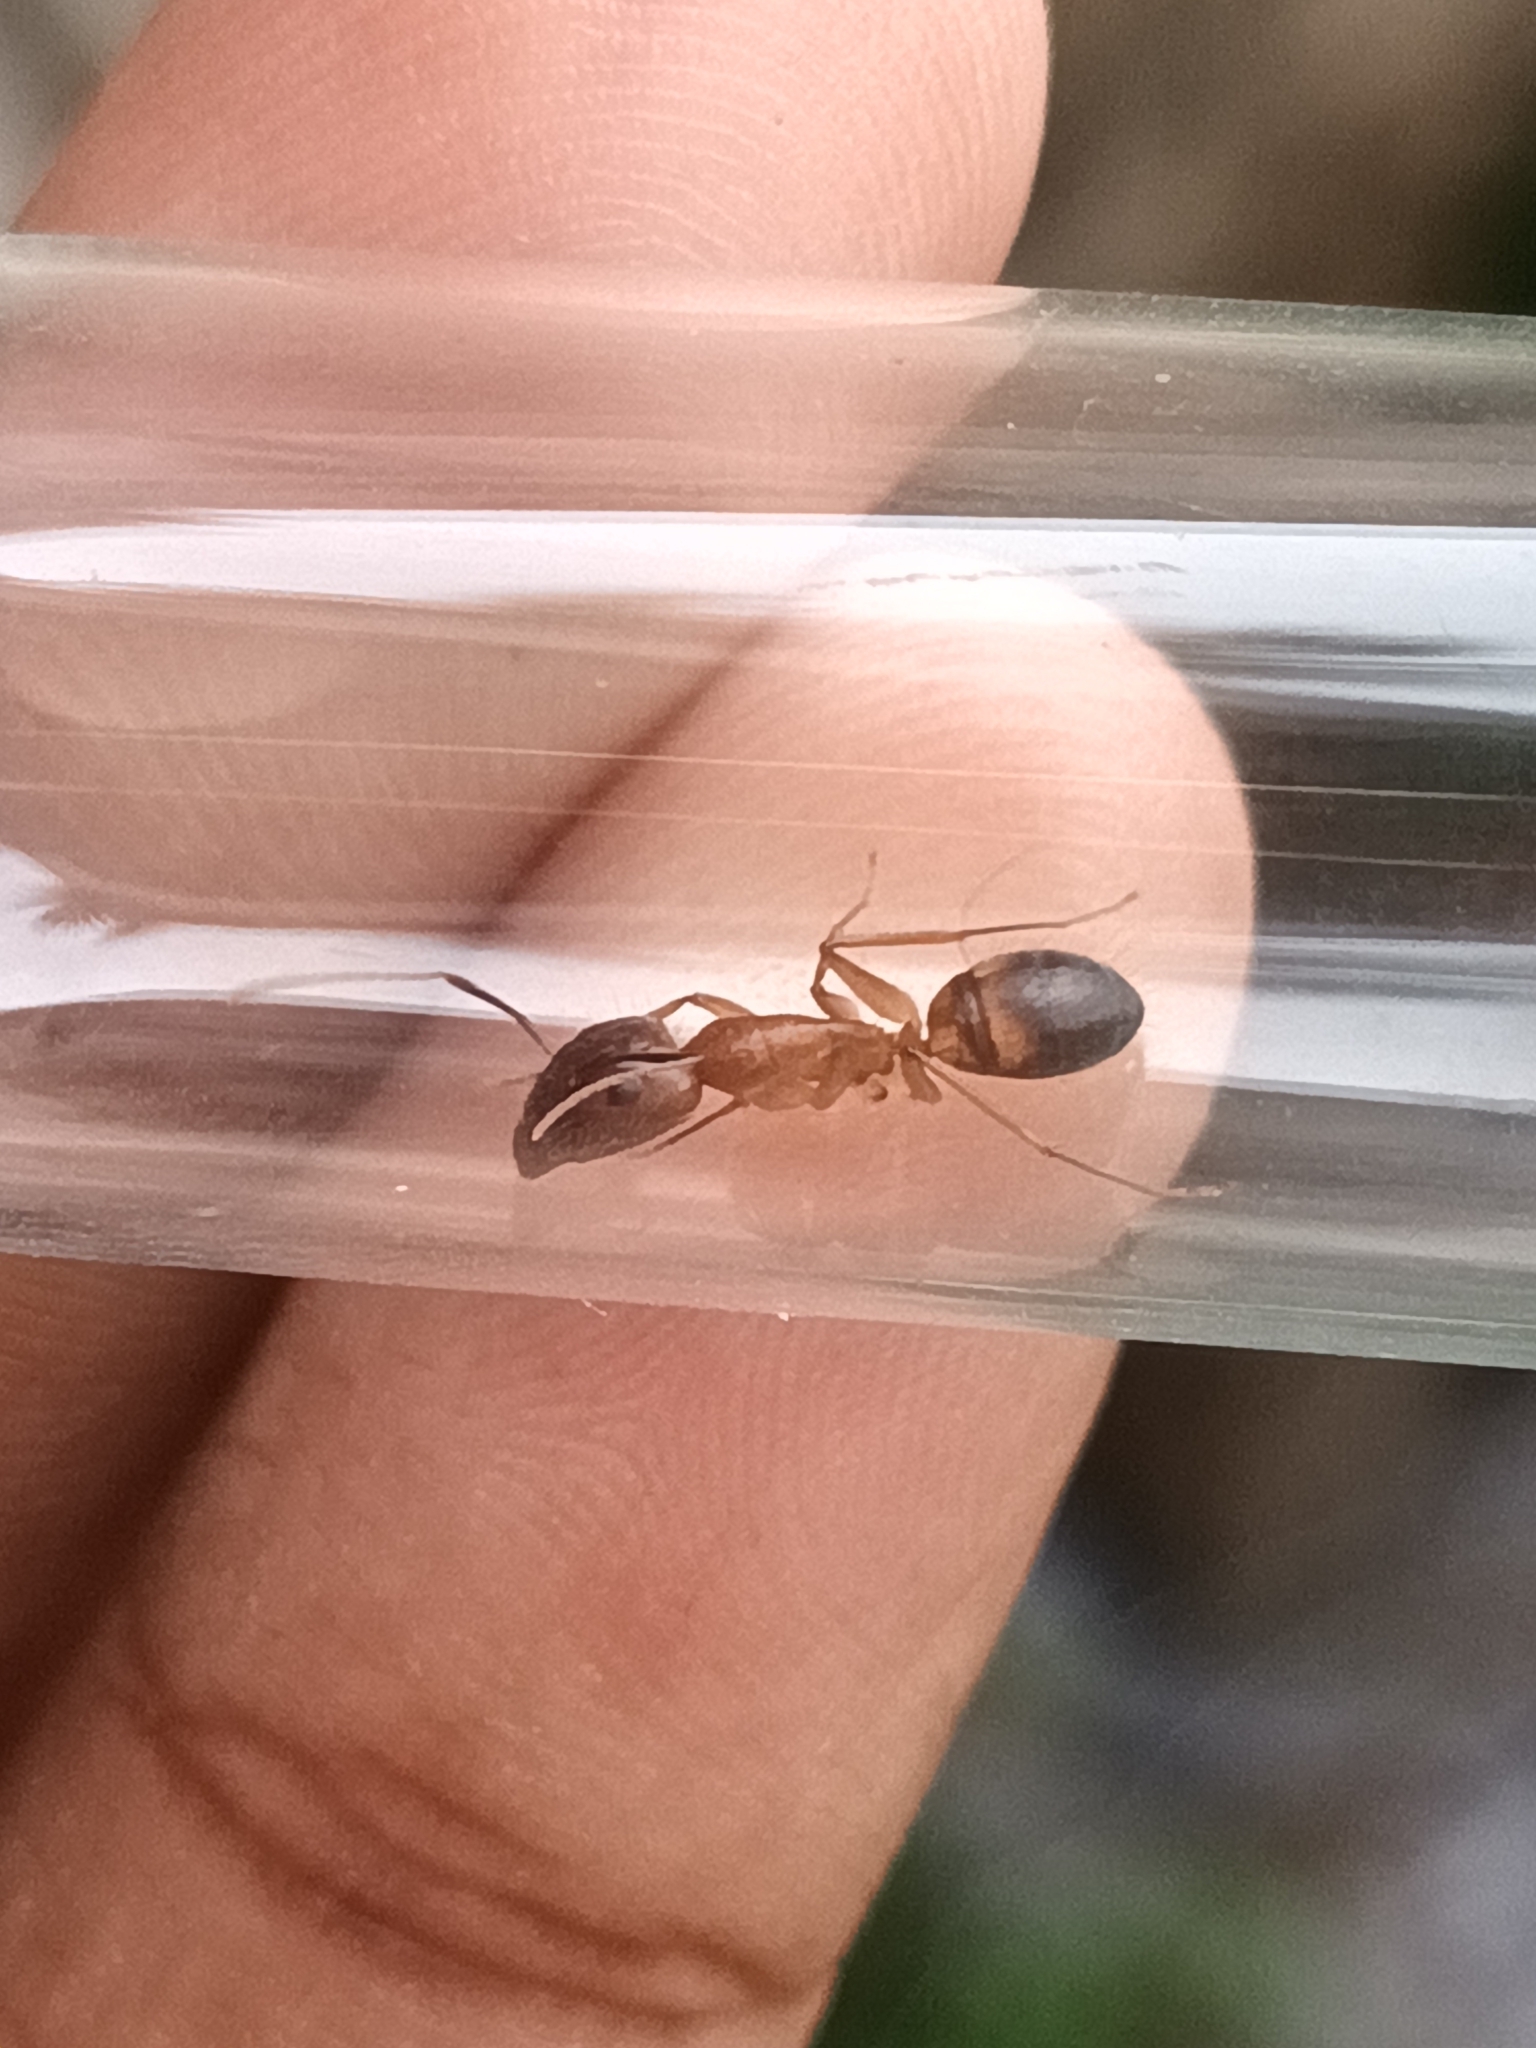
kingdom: Animalia
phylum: Arthropoda
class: Insecta
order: Hymenoptera
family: Formicidae
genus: Camponotus
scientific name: Camponotus albosparsus
